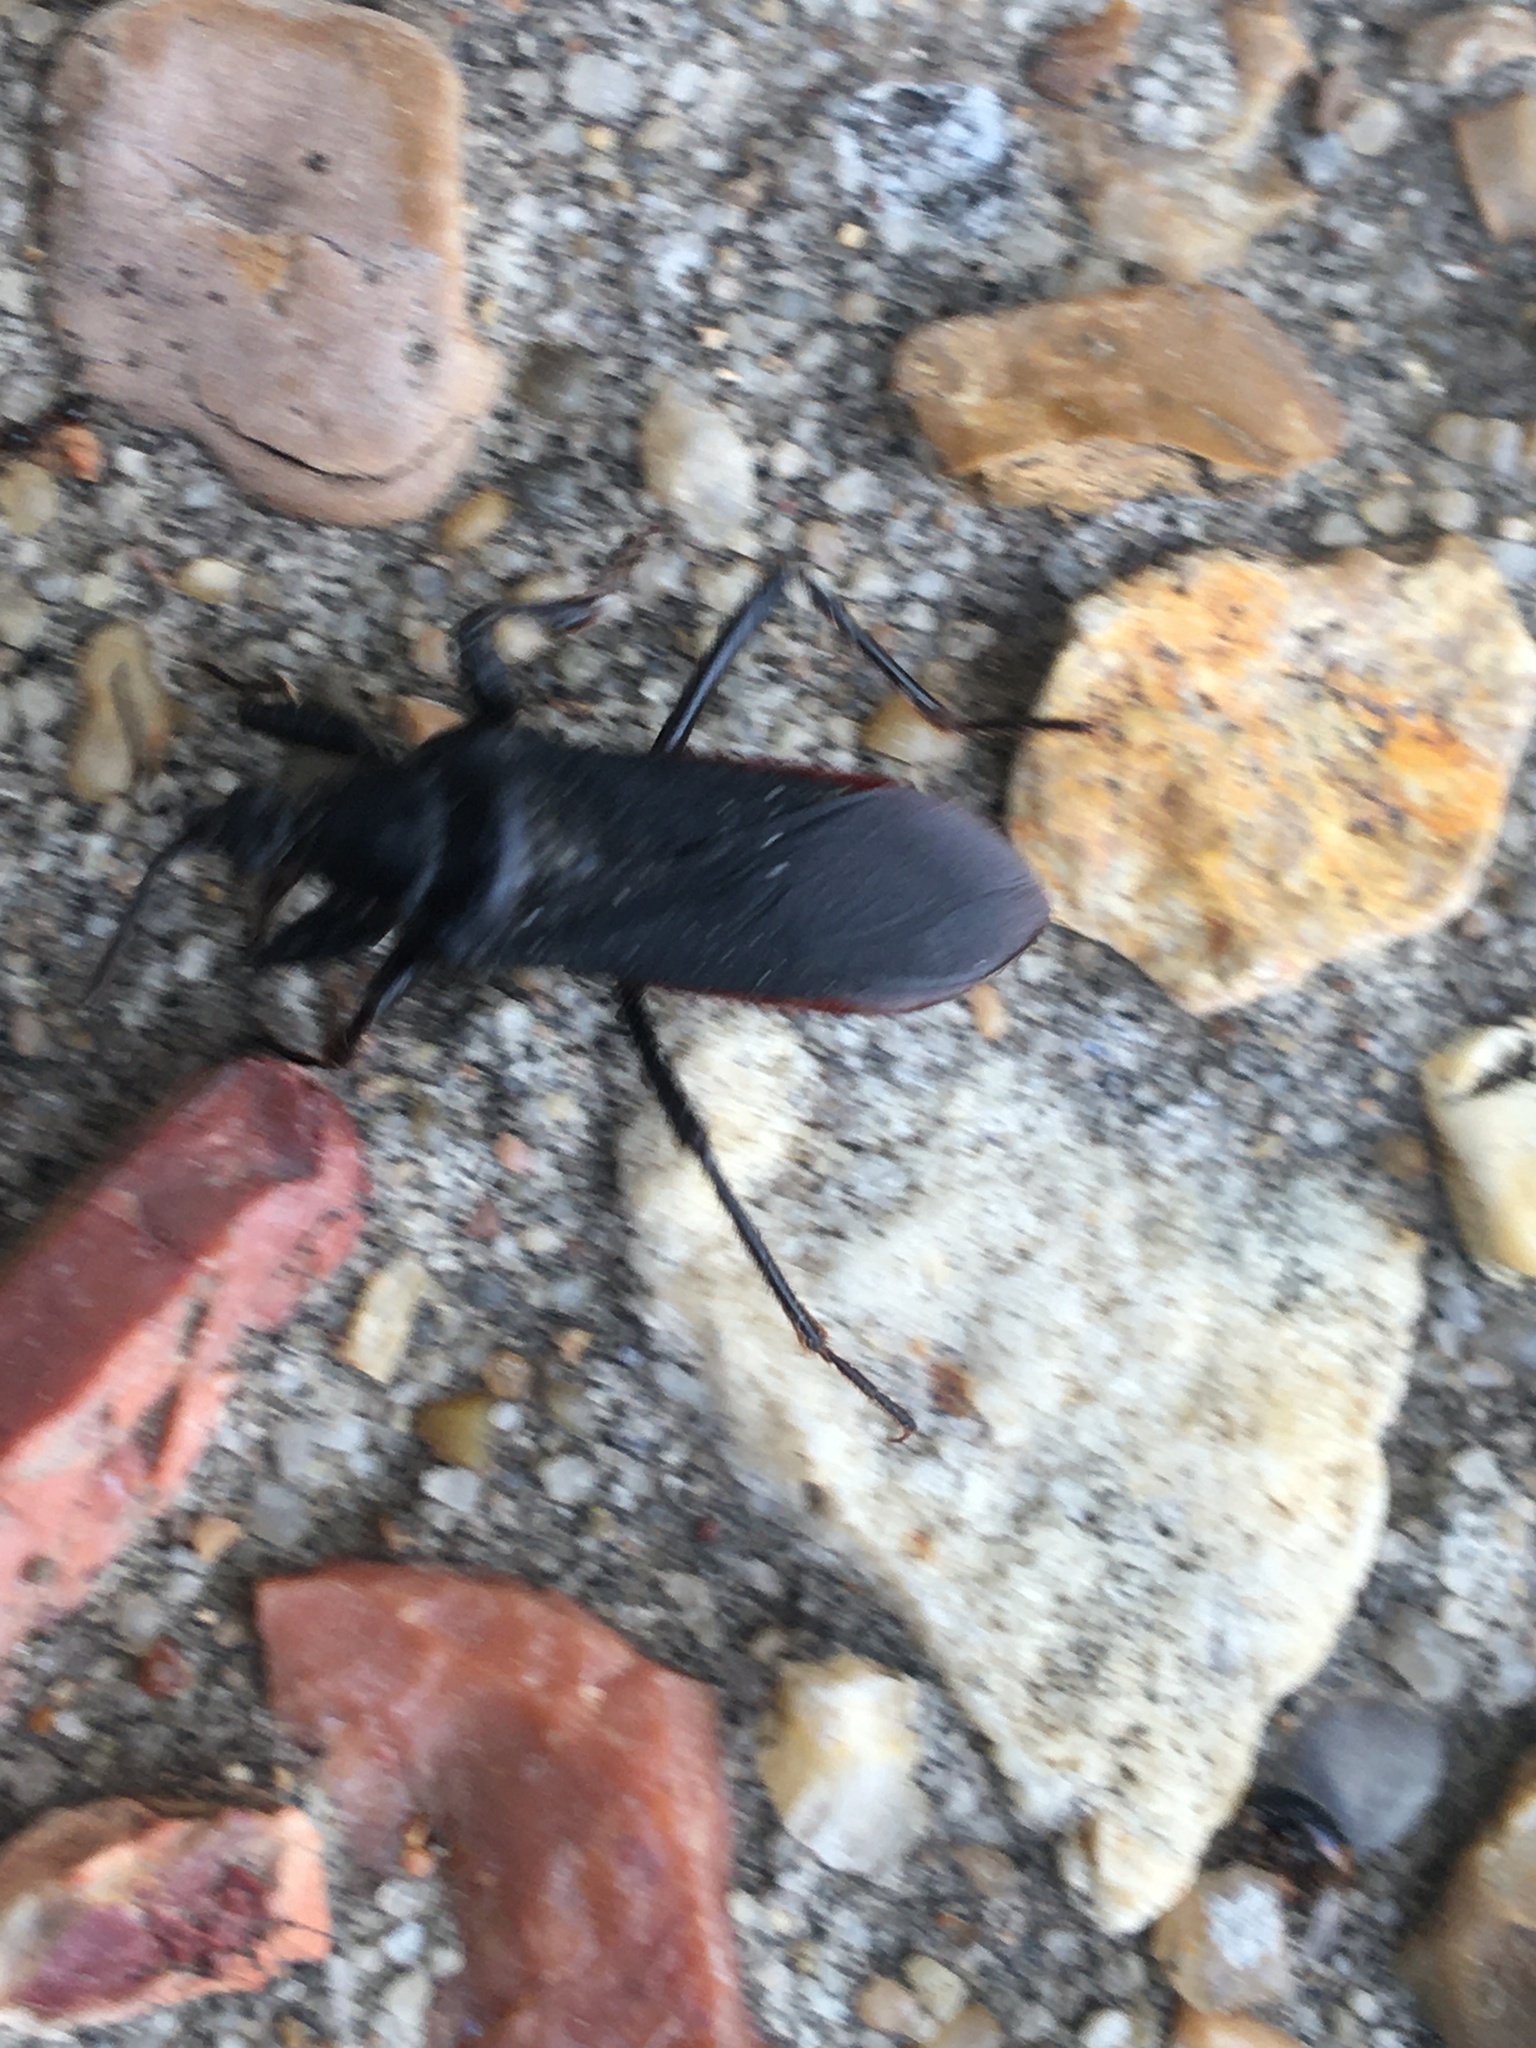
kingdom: Animalia
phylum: Arthropoda
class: Insecta
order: Hemiptera
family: Reduviidae
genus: Melanolestes
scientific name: Melanolestes picipes
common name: Assassin bug
